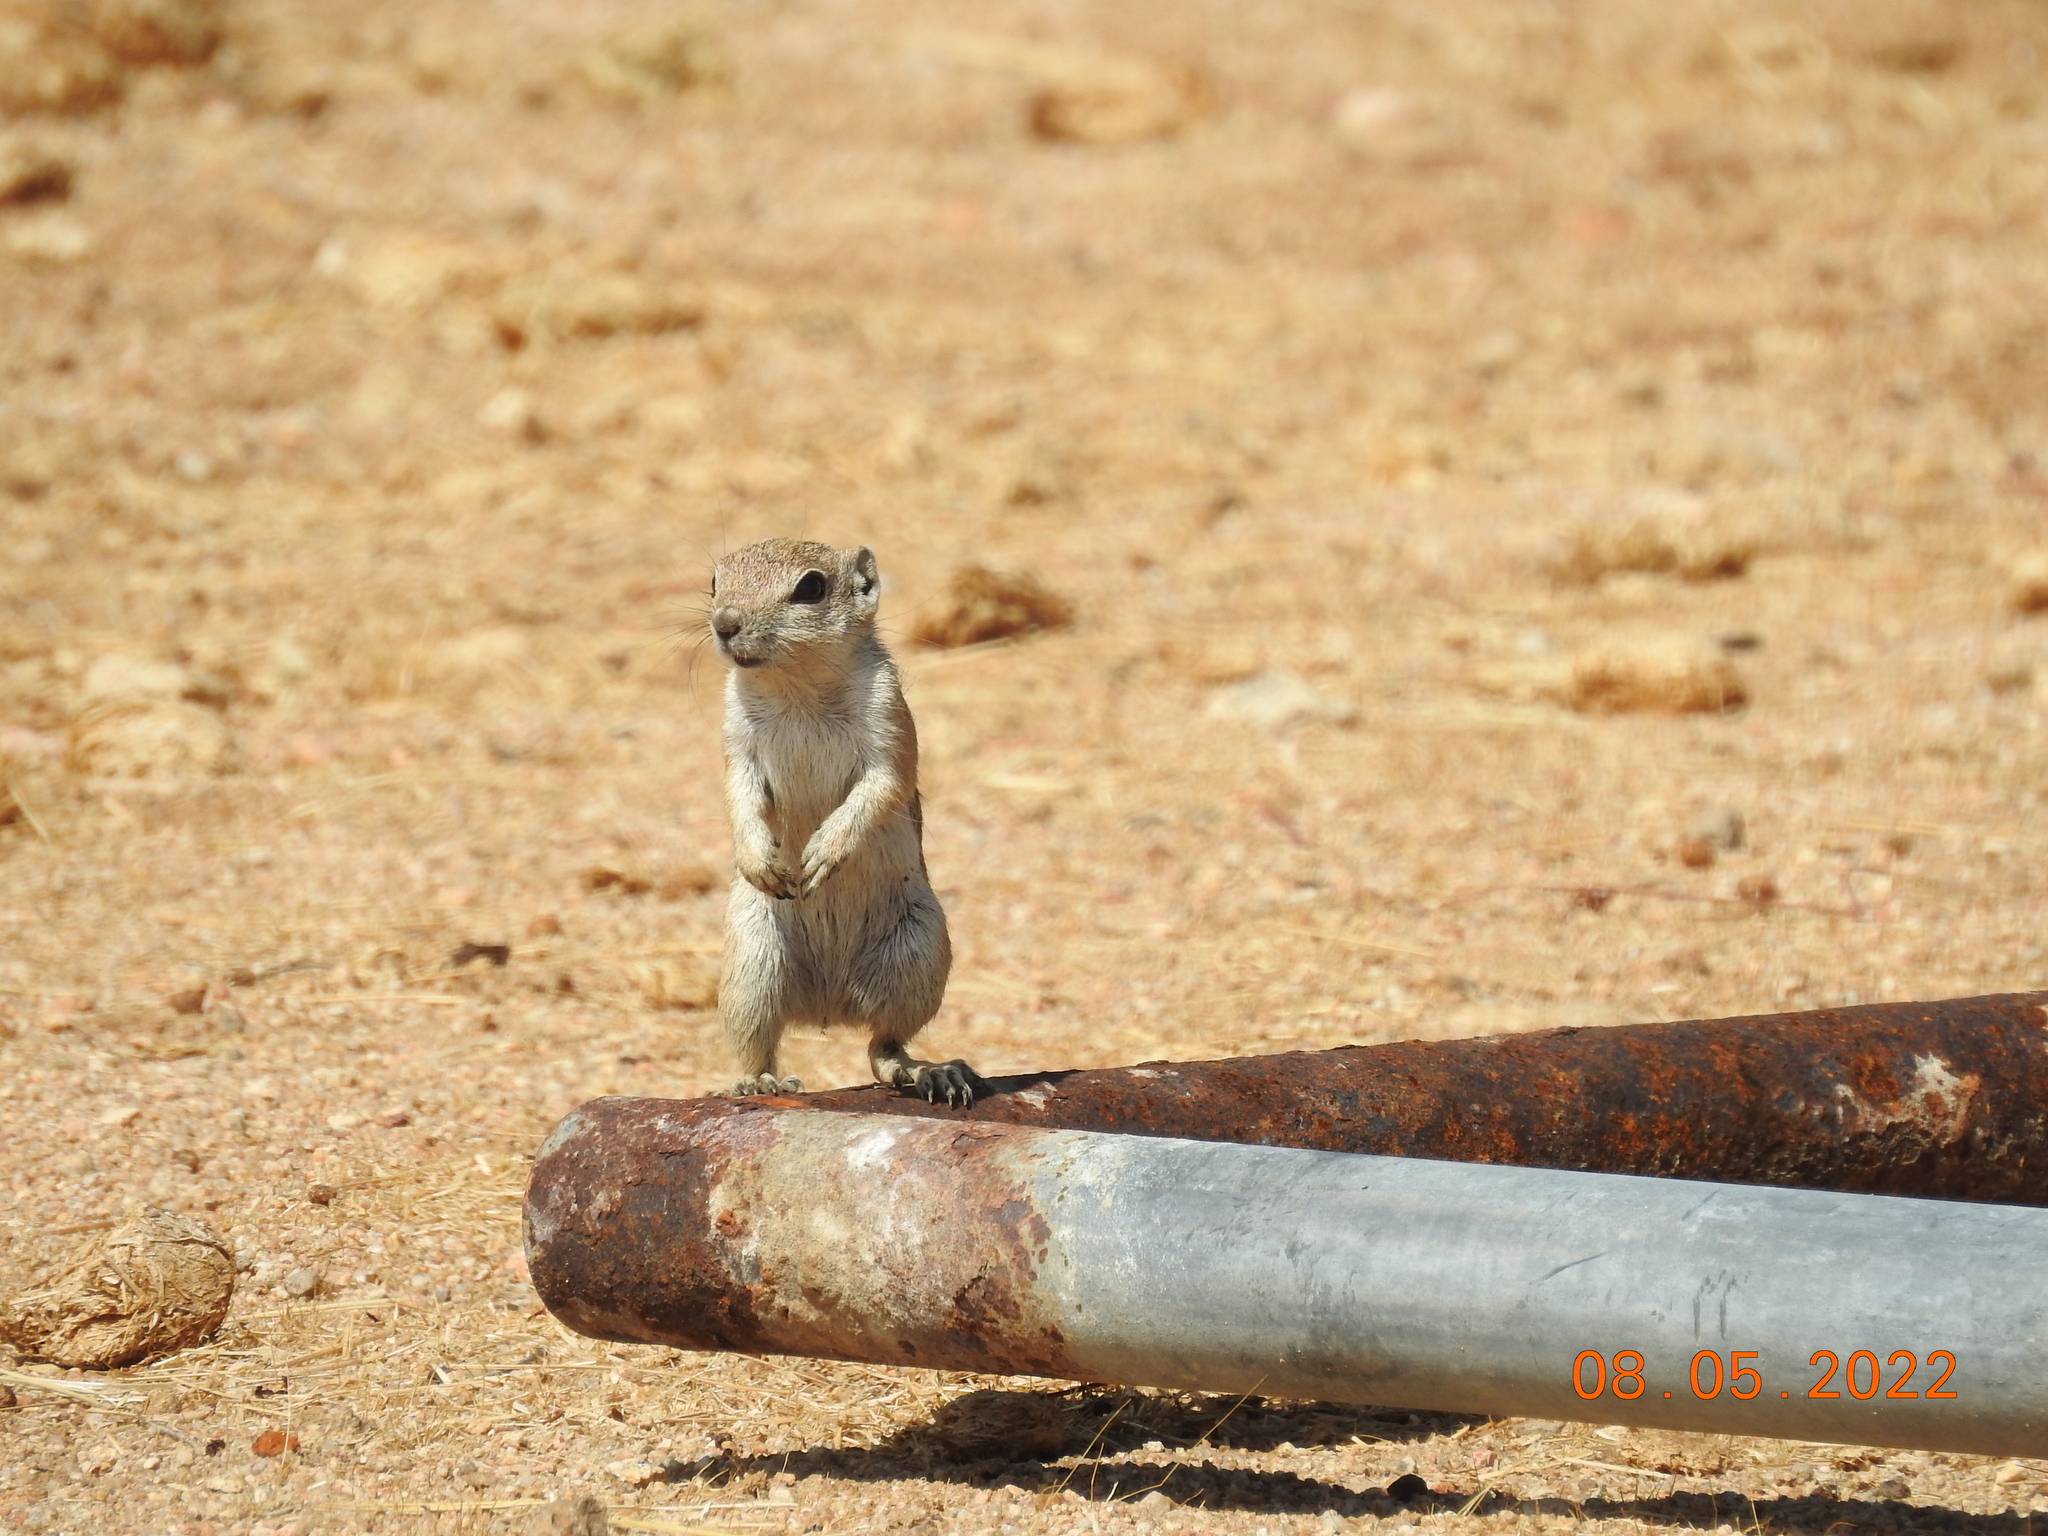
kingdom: Animalia
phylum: Chordata
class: Mammalia
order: Rodentia
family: Sciuridae
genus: Ammospermophilus
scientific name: Ammospermophilus leucurus
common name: White-tailed antelope squirrel
